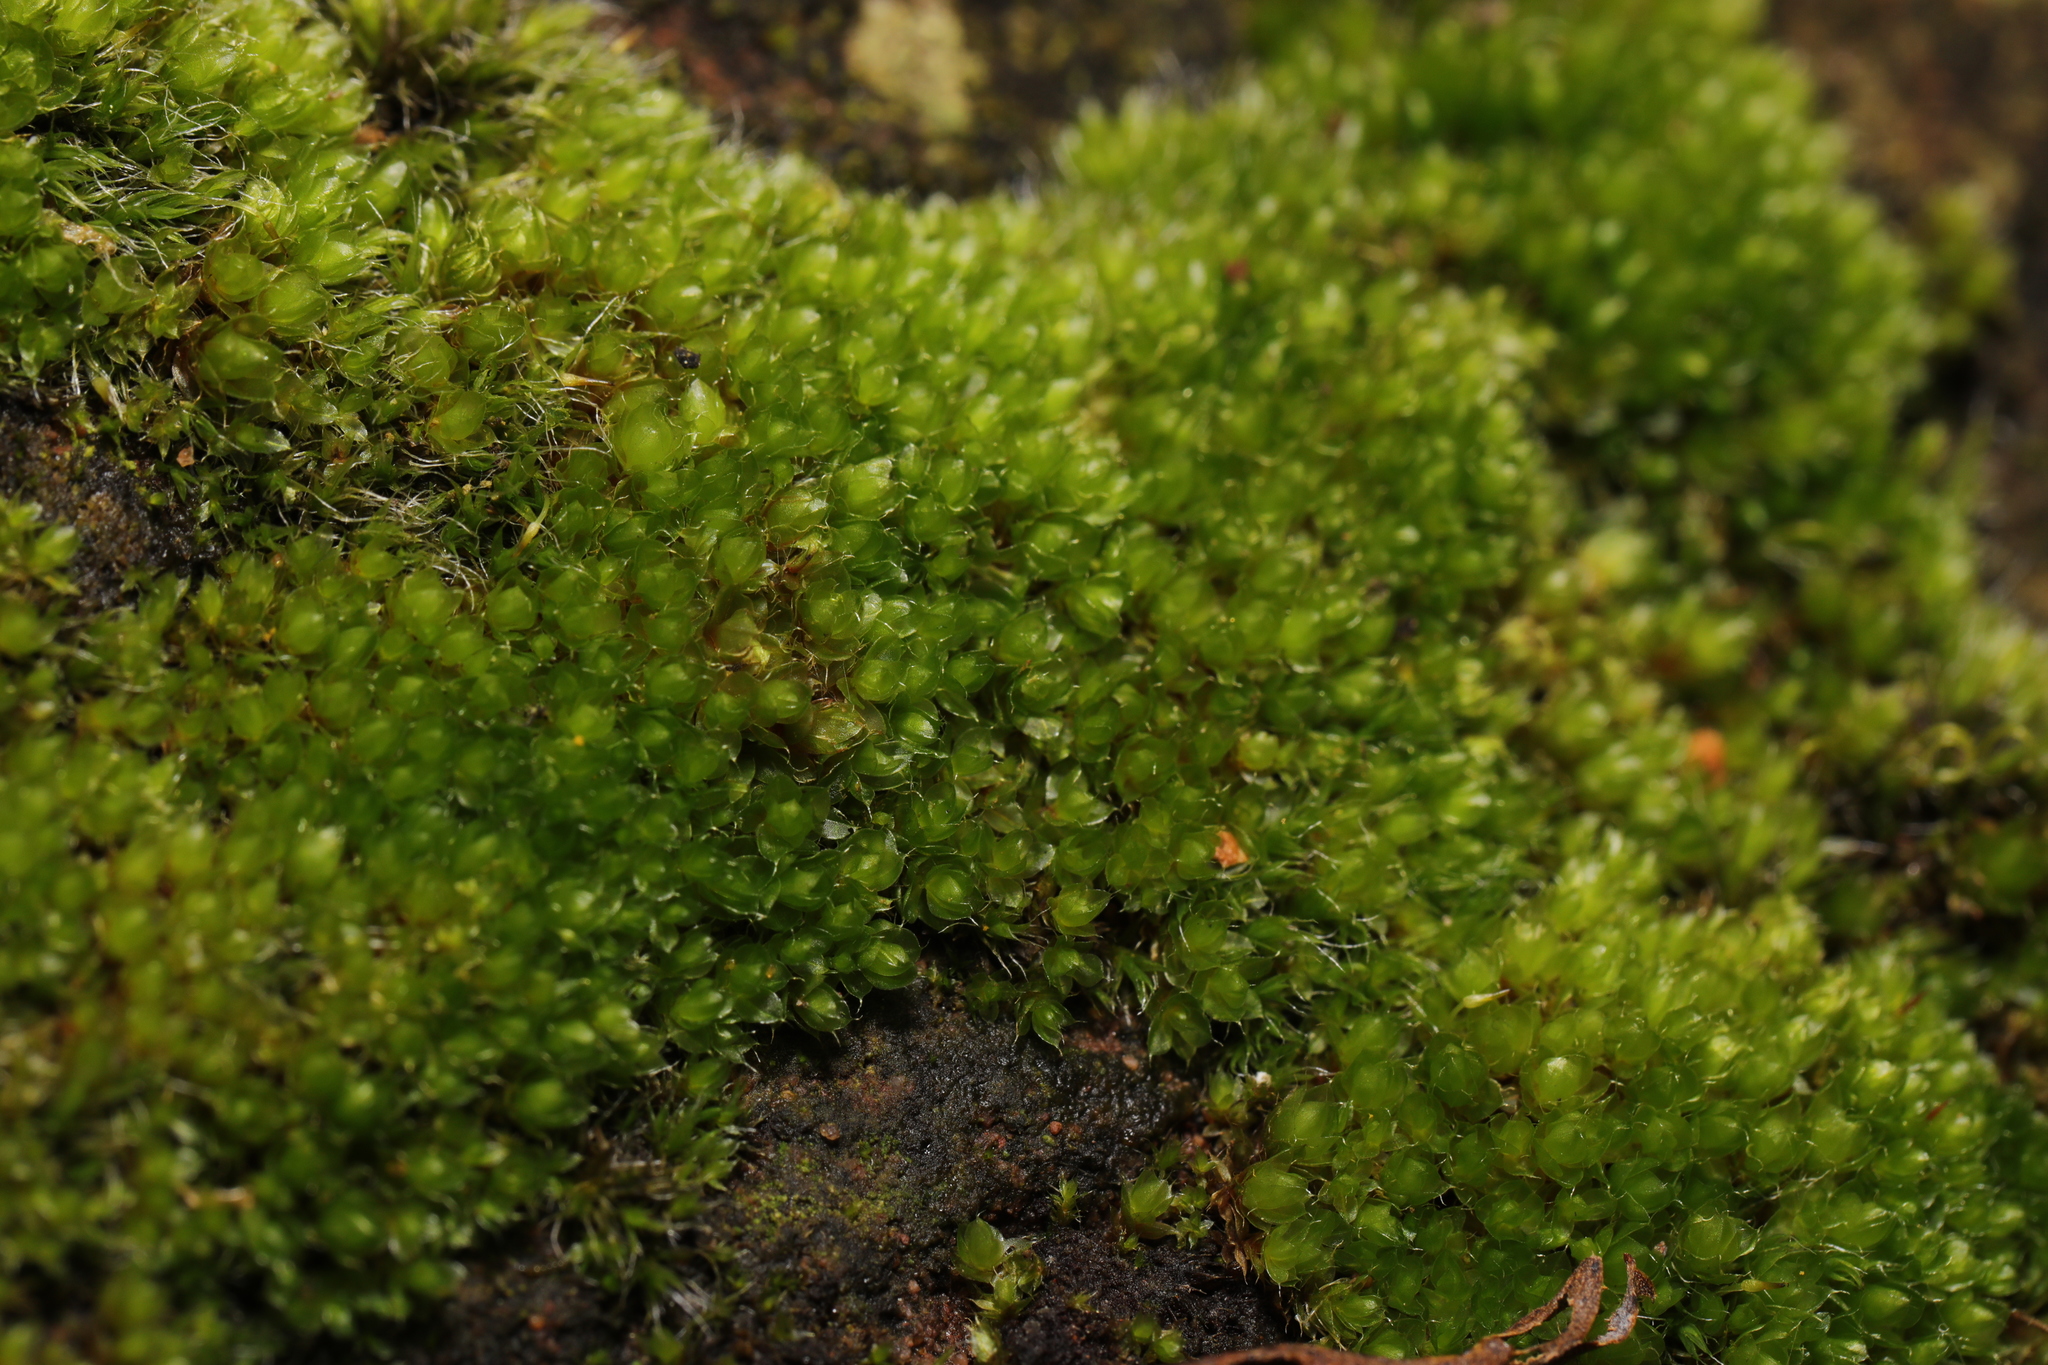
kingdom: Plantae
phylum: Bryophyta
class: Bryopsida
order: Bryales
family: Bryaceae
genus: Rosulabryum
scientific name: Rosulabryum capillare
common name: Capillary thread-moss
